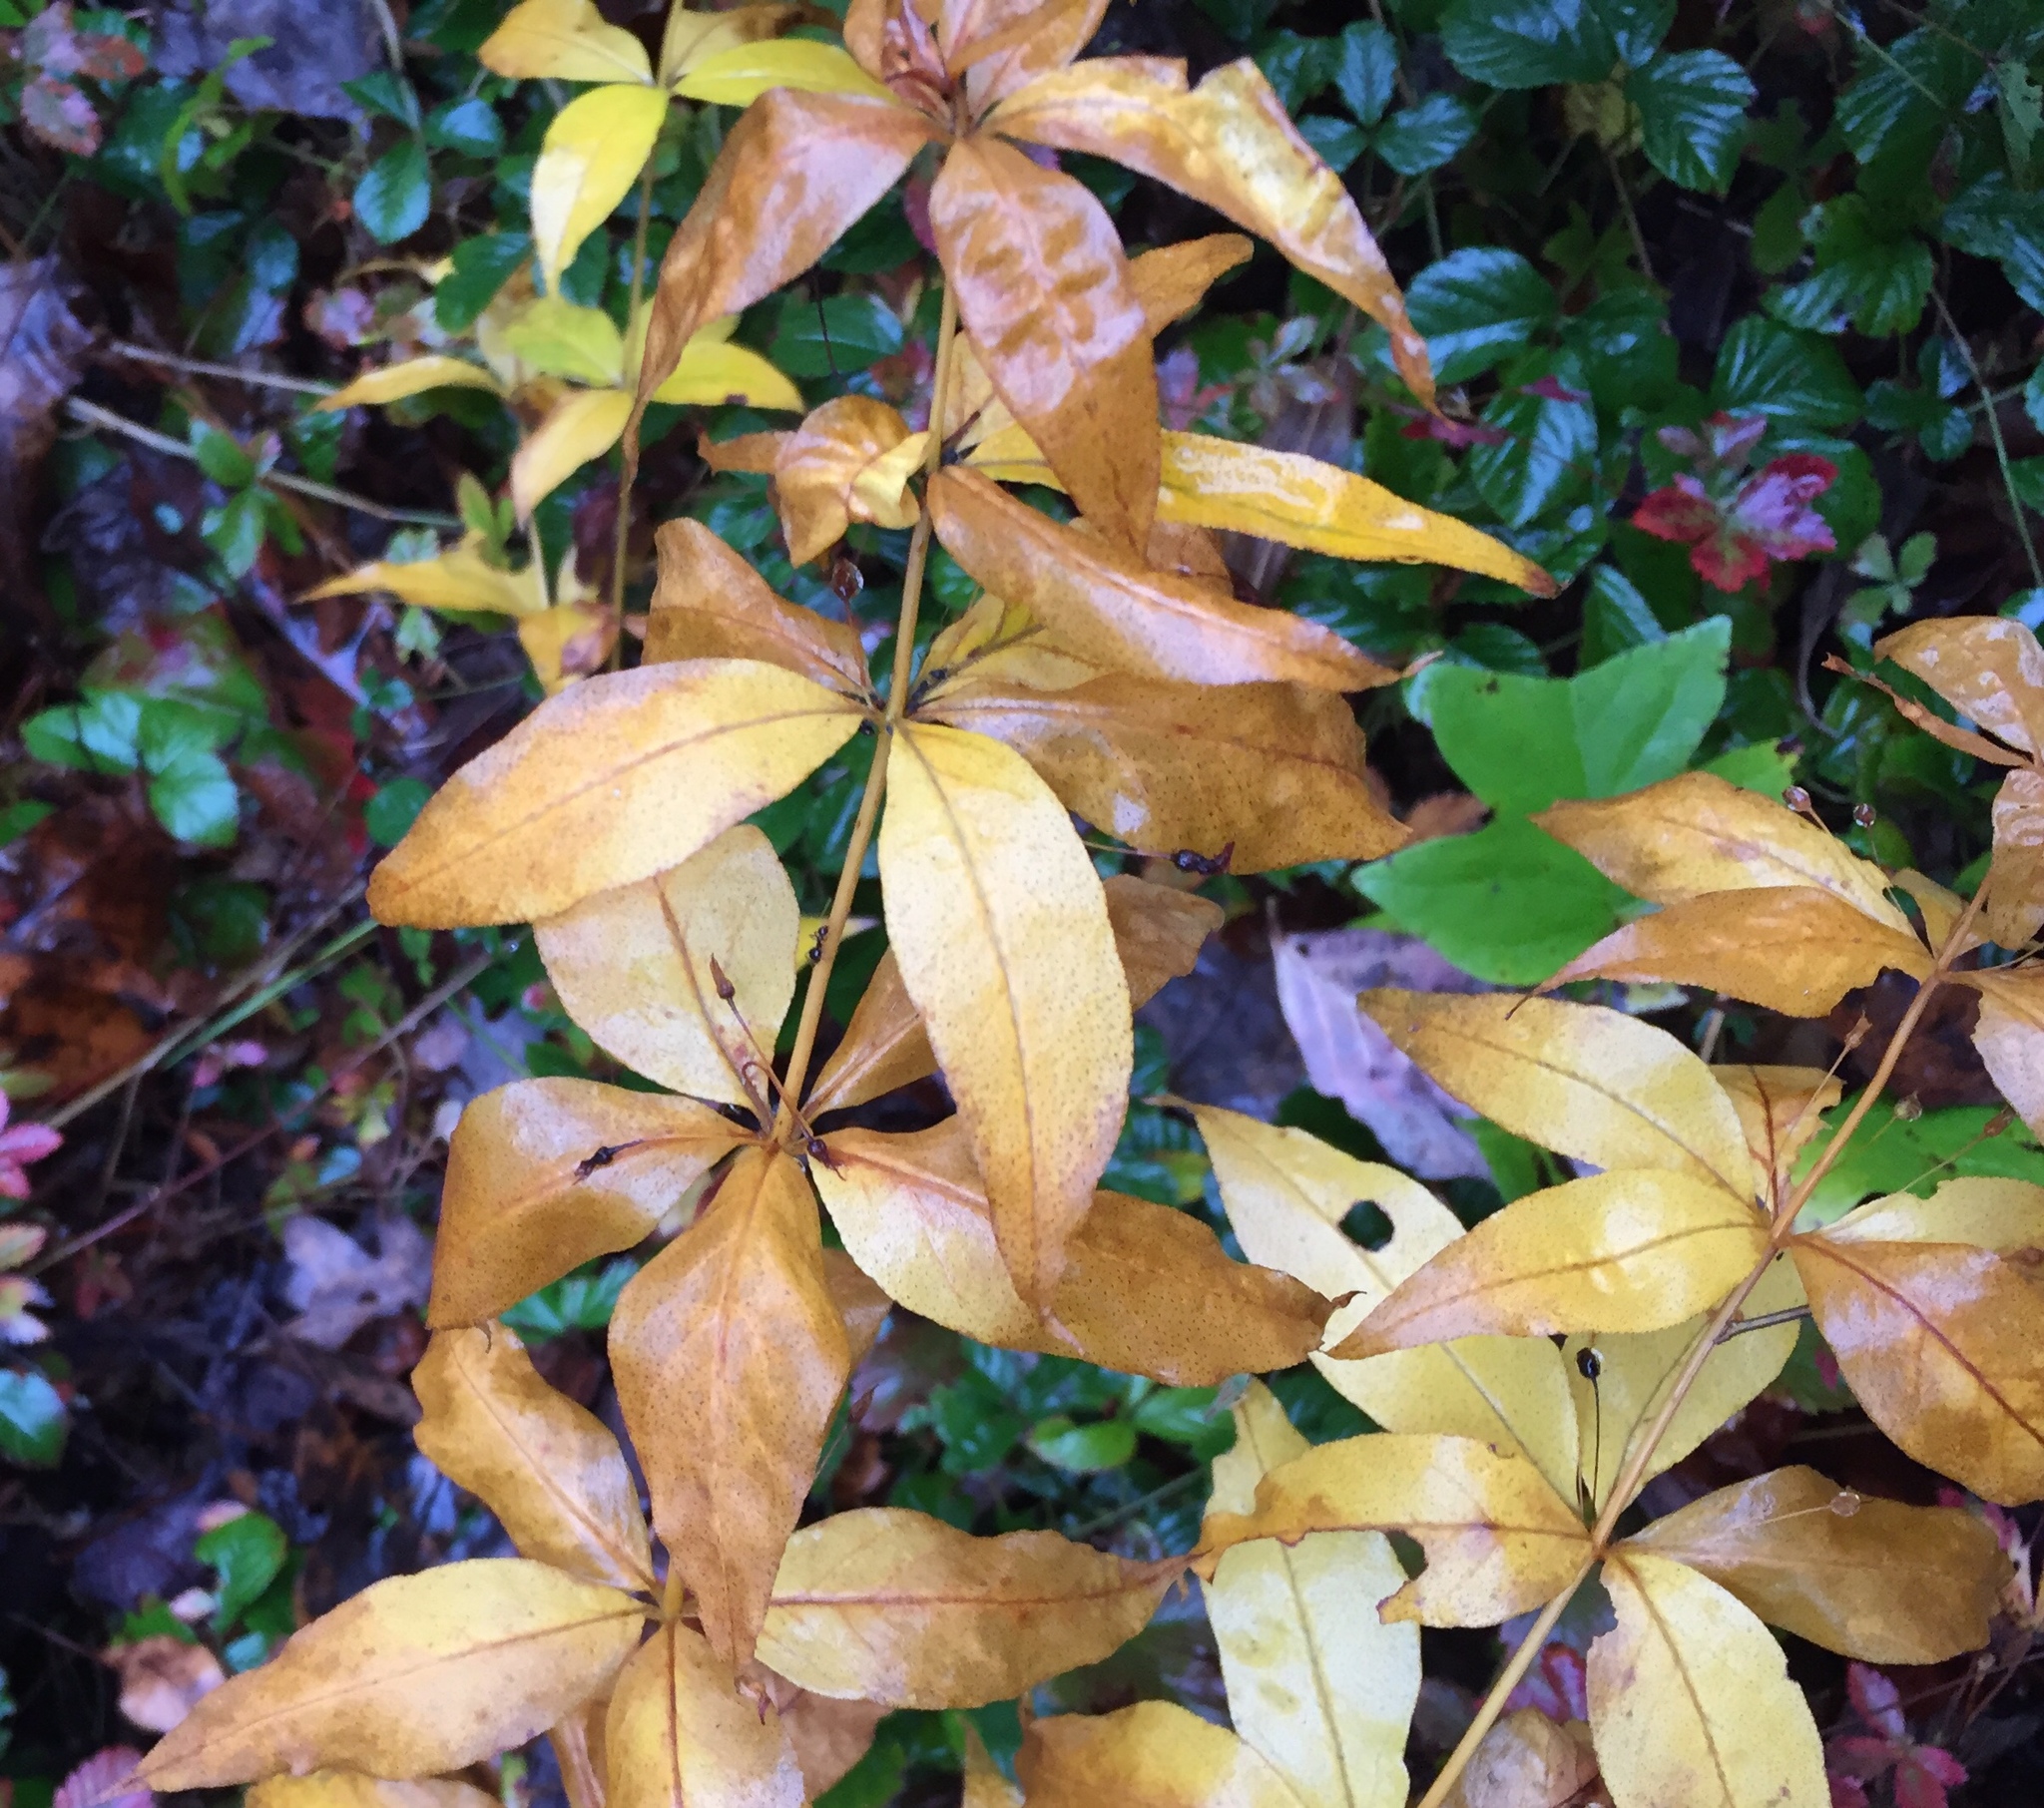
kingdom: Plantae
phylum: Tracheophyta
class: Magnoliopsida
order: Ericales
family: Primulaceae
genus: Lysimachia
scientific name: Lysimachia quadrifolia
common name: Whorled loosestrife
